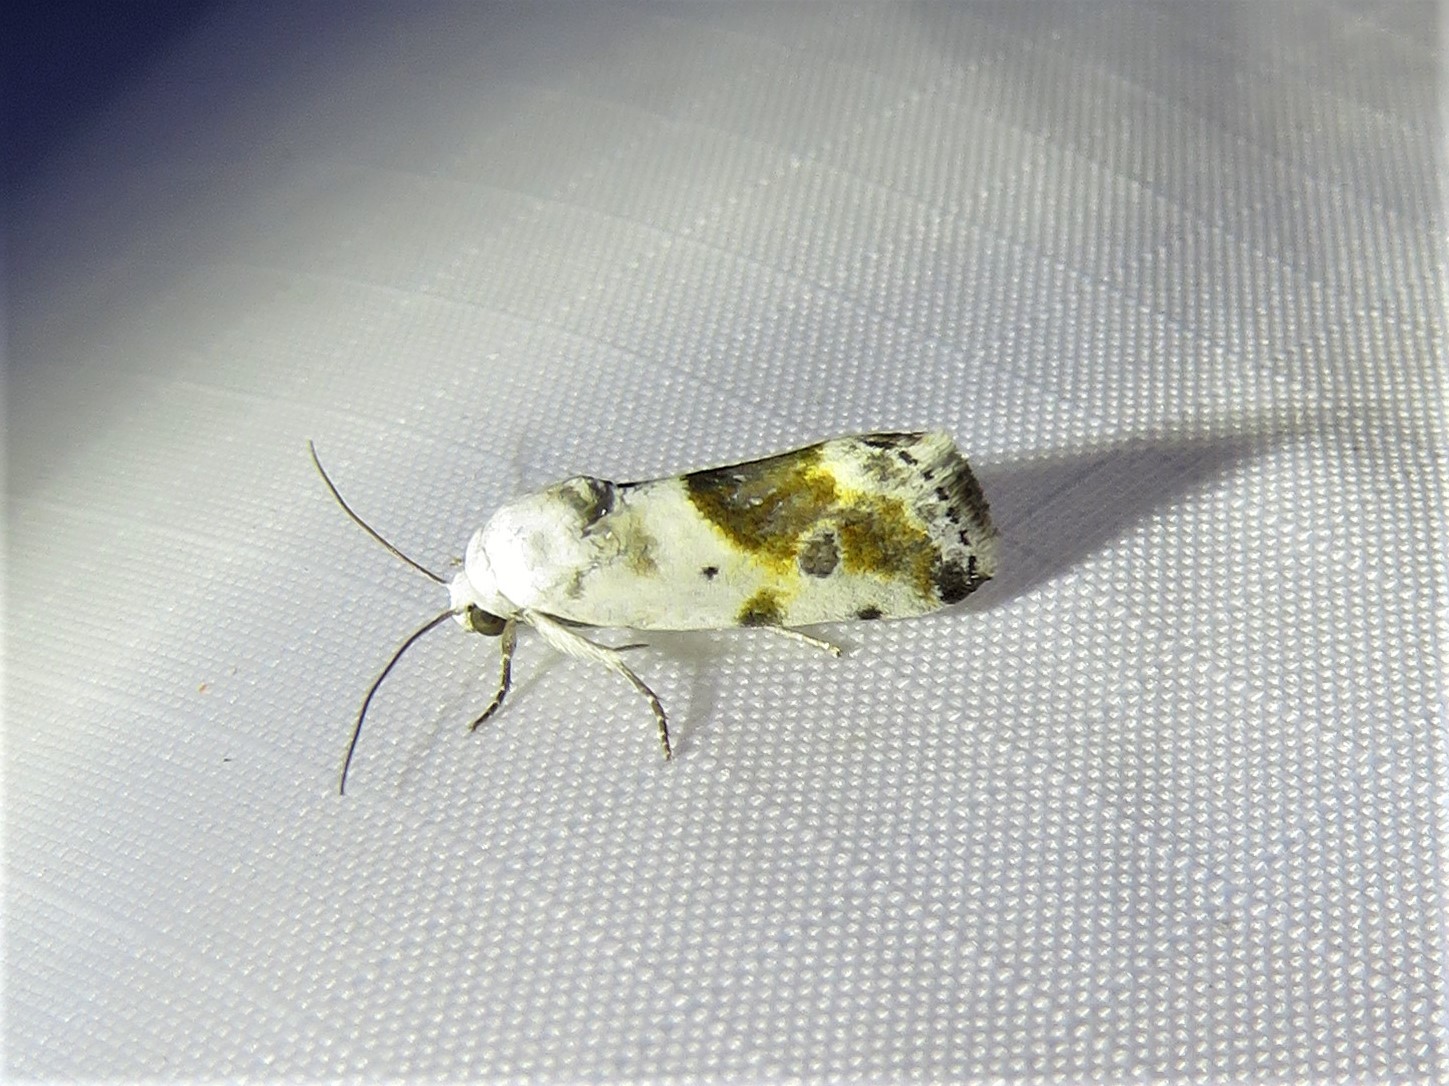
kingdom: Animalia
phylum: Arthropoda
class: Insecta
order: Lepidoptera
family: Noctuidae
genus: Acontia
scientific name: Acontia candefacta
